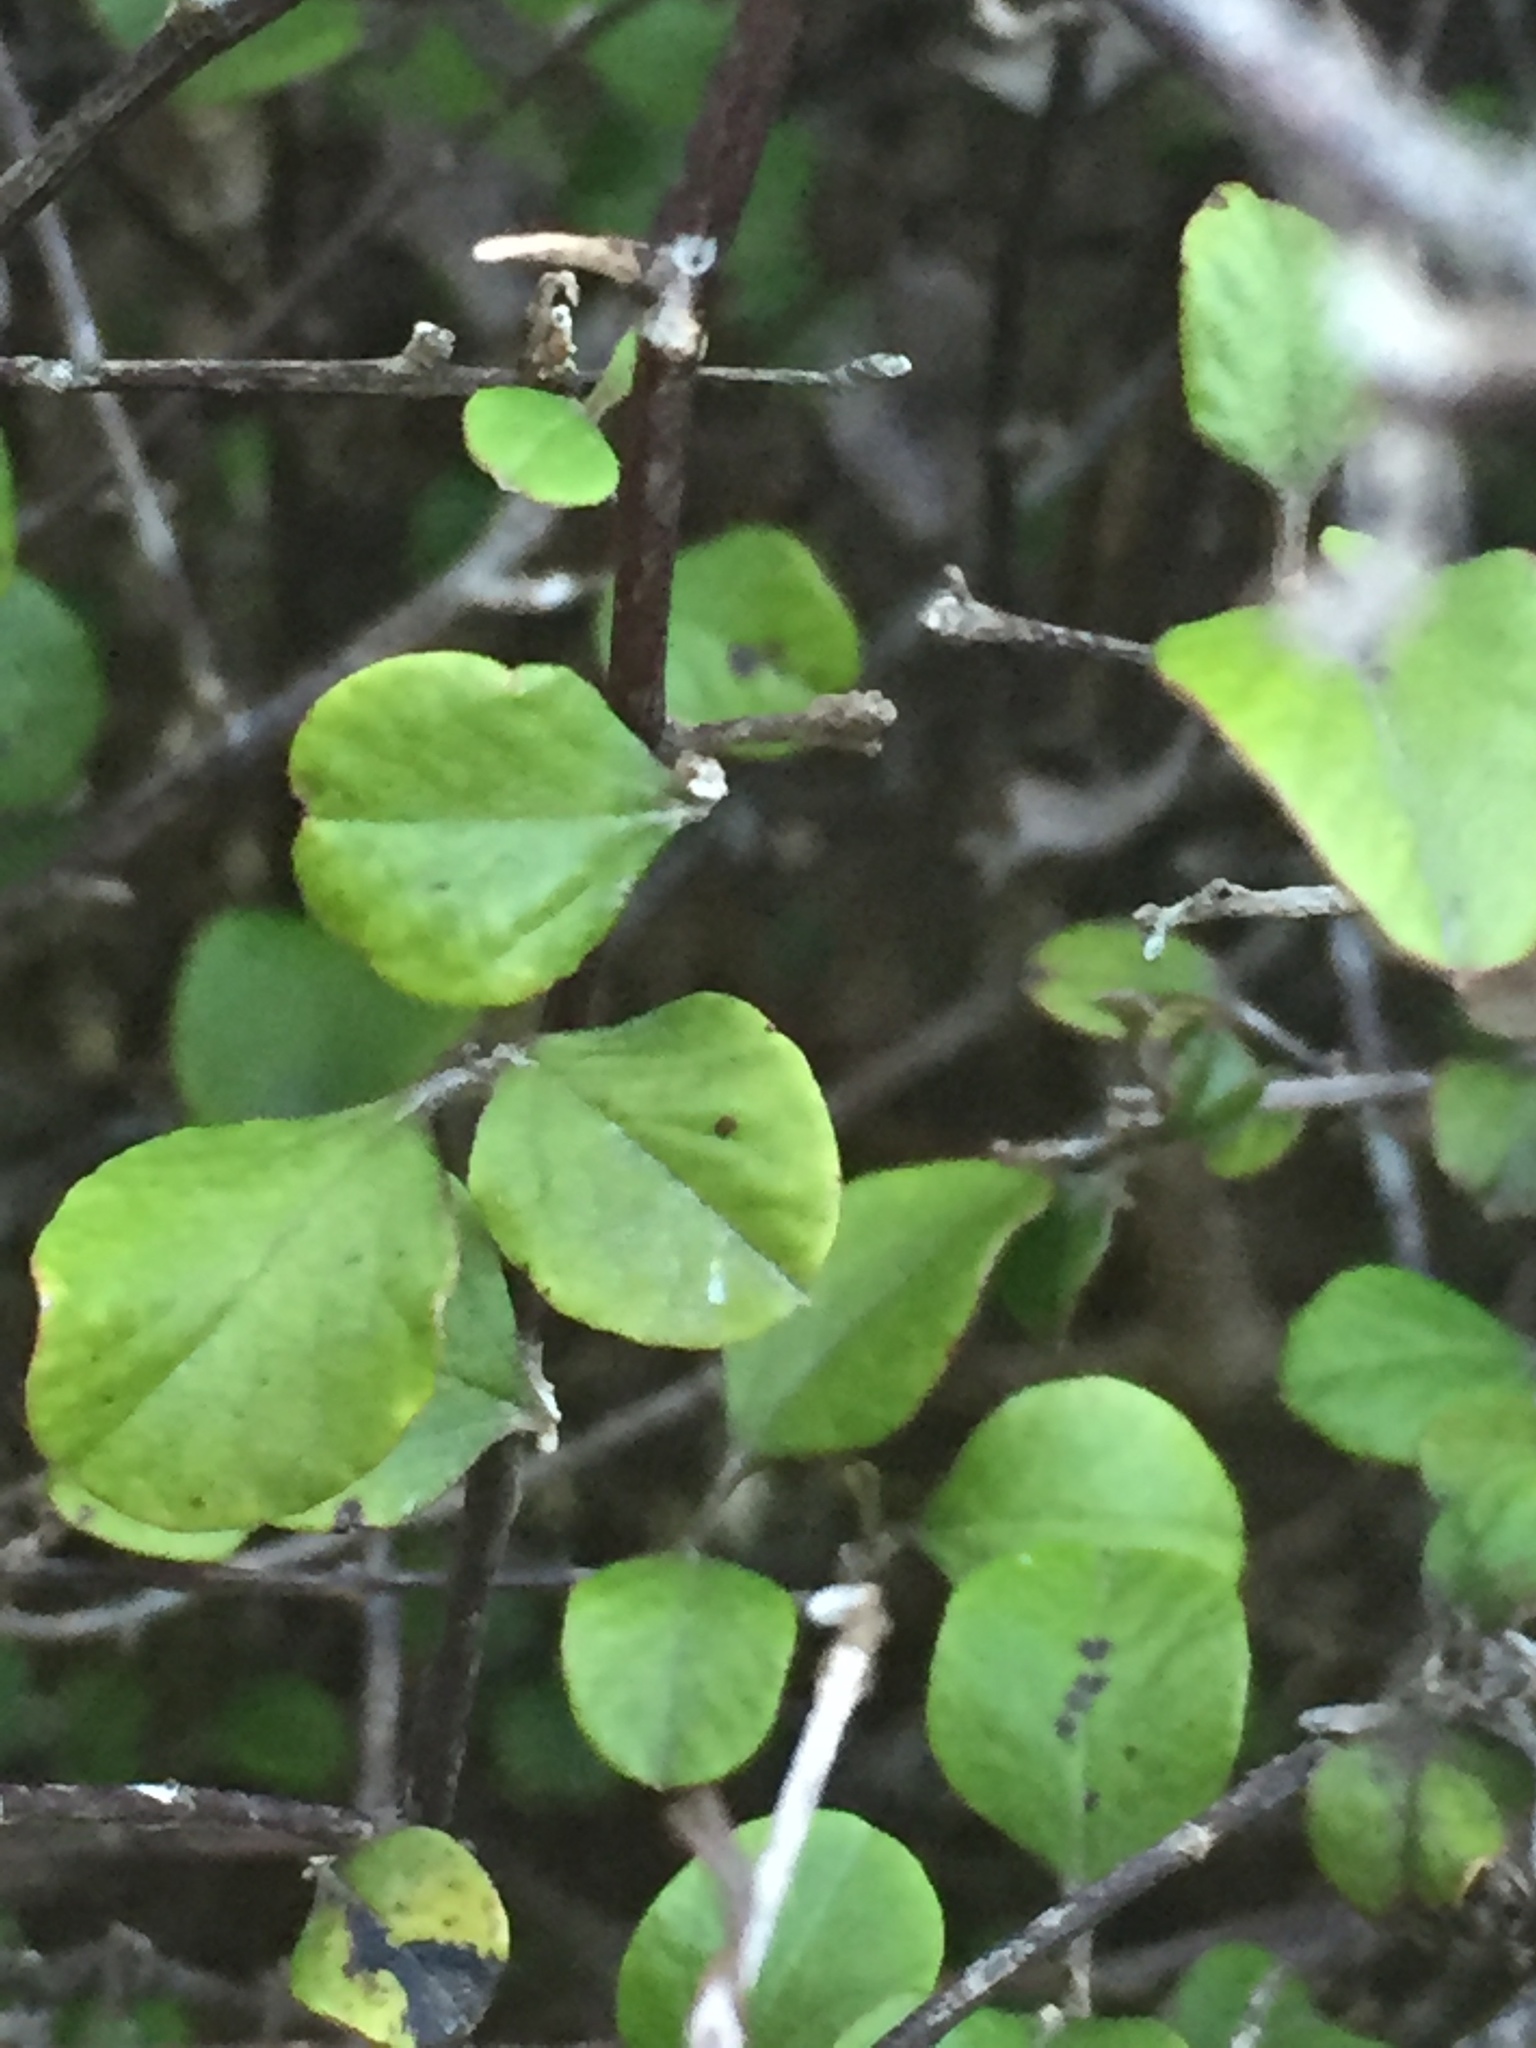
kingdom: Plantae
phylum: Tracheophyta
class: Magnoliopsida
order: Asterales
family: Asteraceae
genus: Ozothamnus
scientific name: Ozothamnus glomeratus
